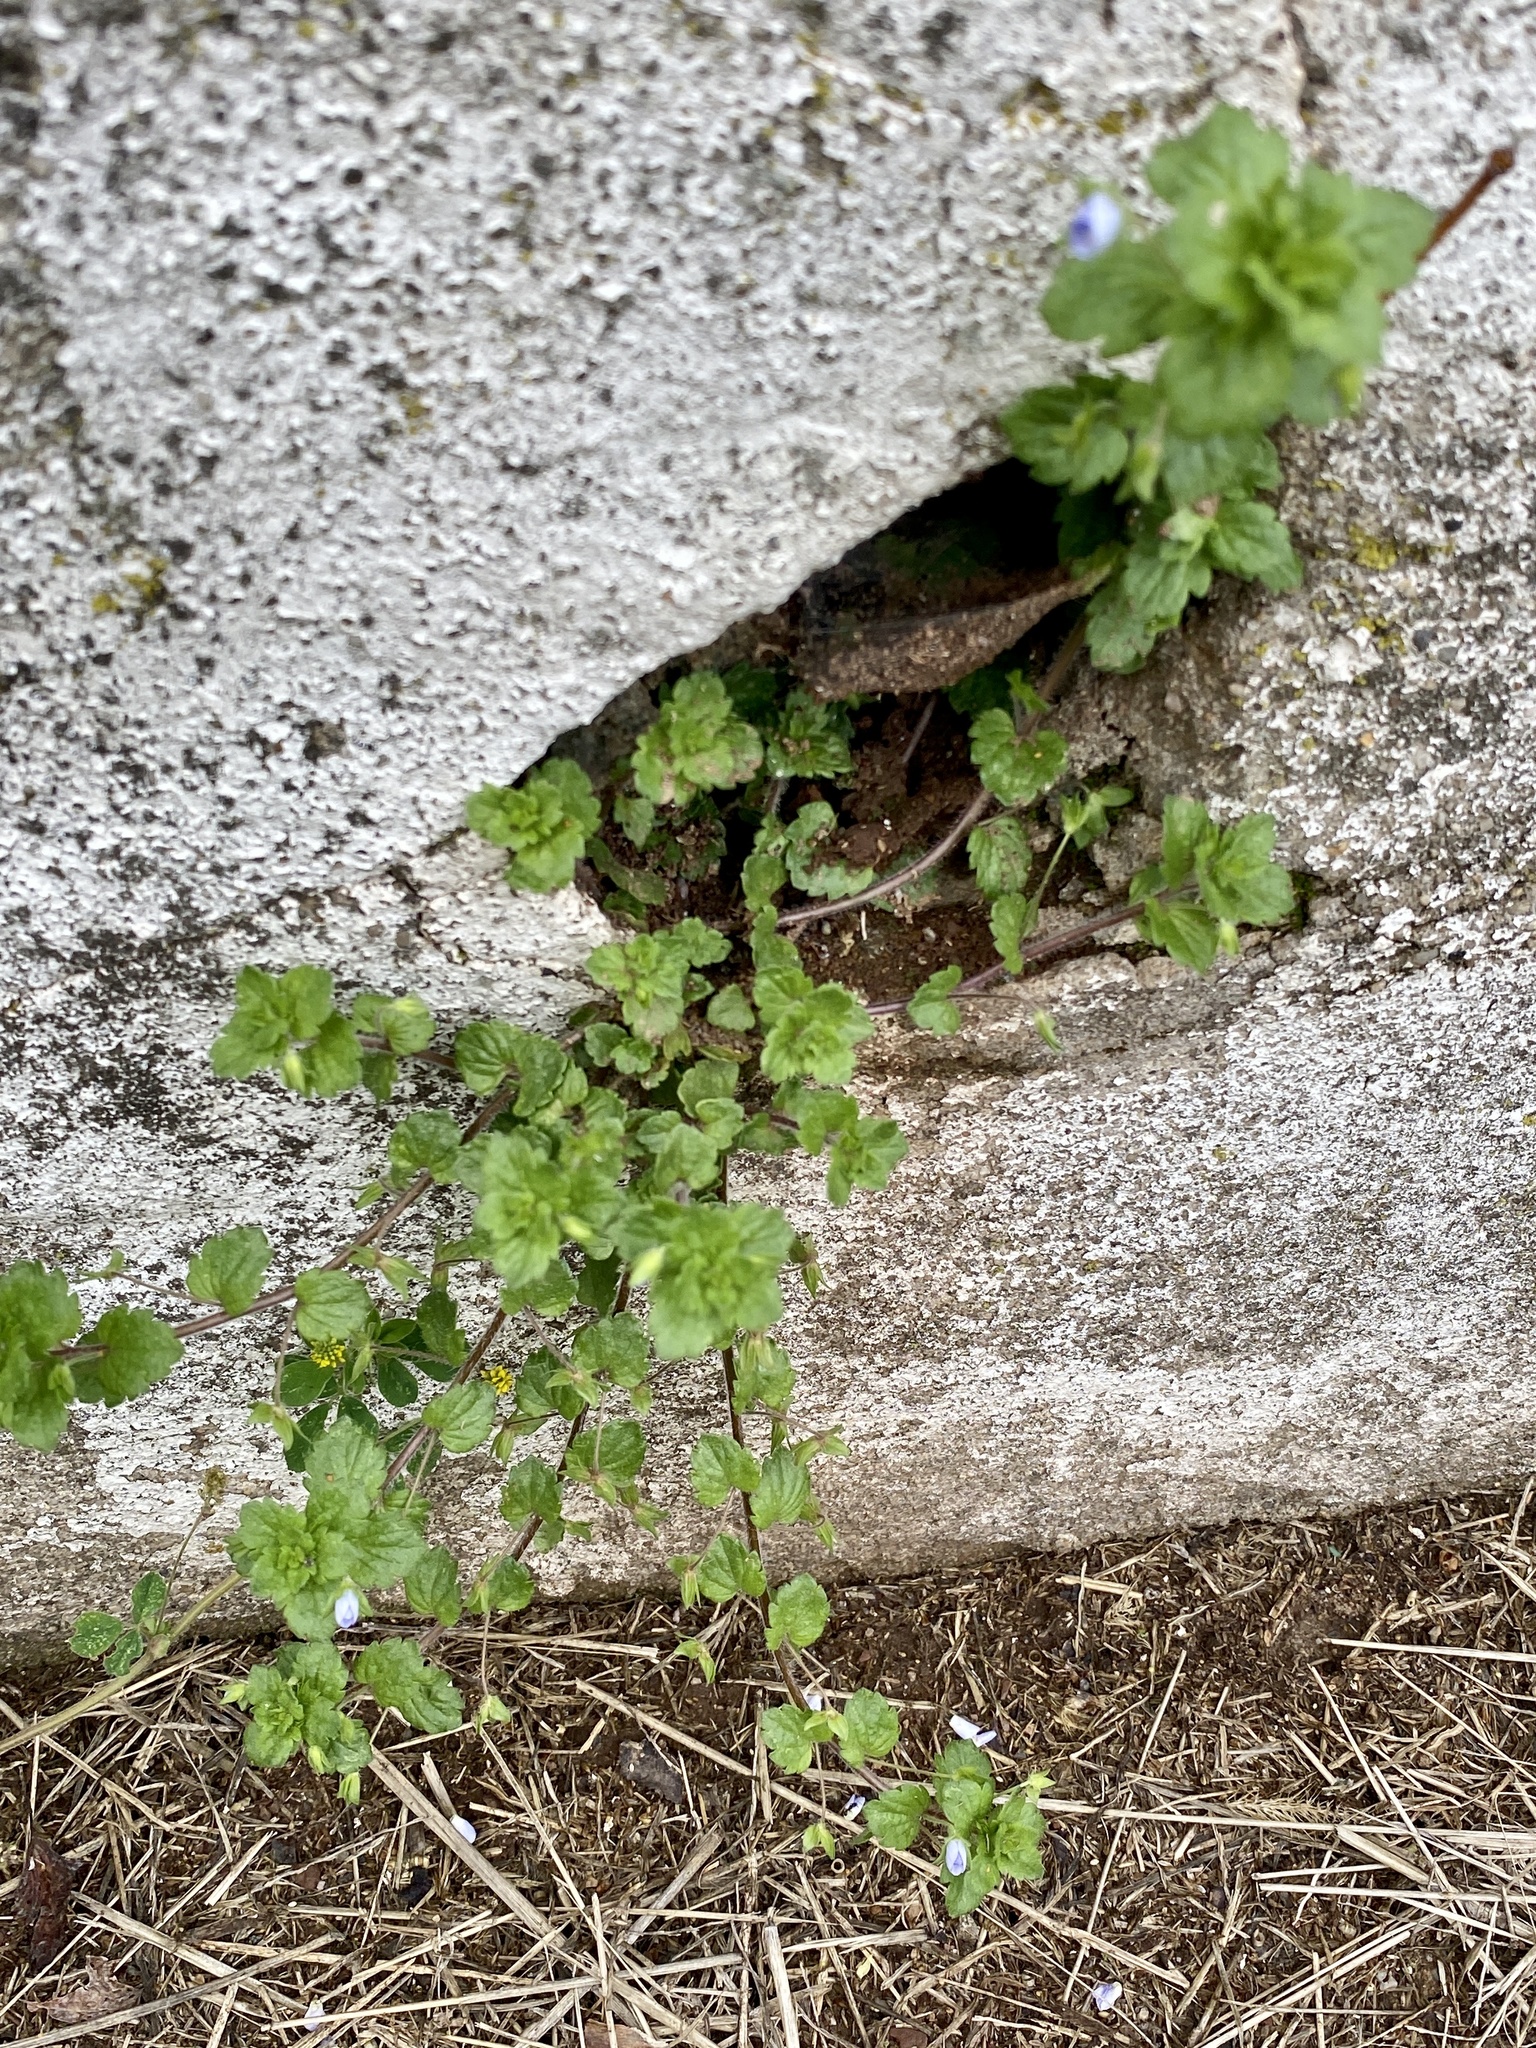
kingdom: Plantae
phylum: Tracheophyta
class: Magnoliopsida
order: Lamiales
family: Plantaginaceae
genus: Veronica
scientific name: Veronica persica
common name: Common field-speedwell
